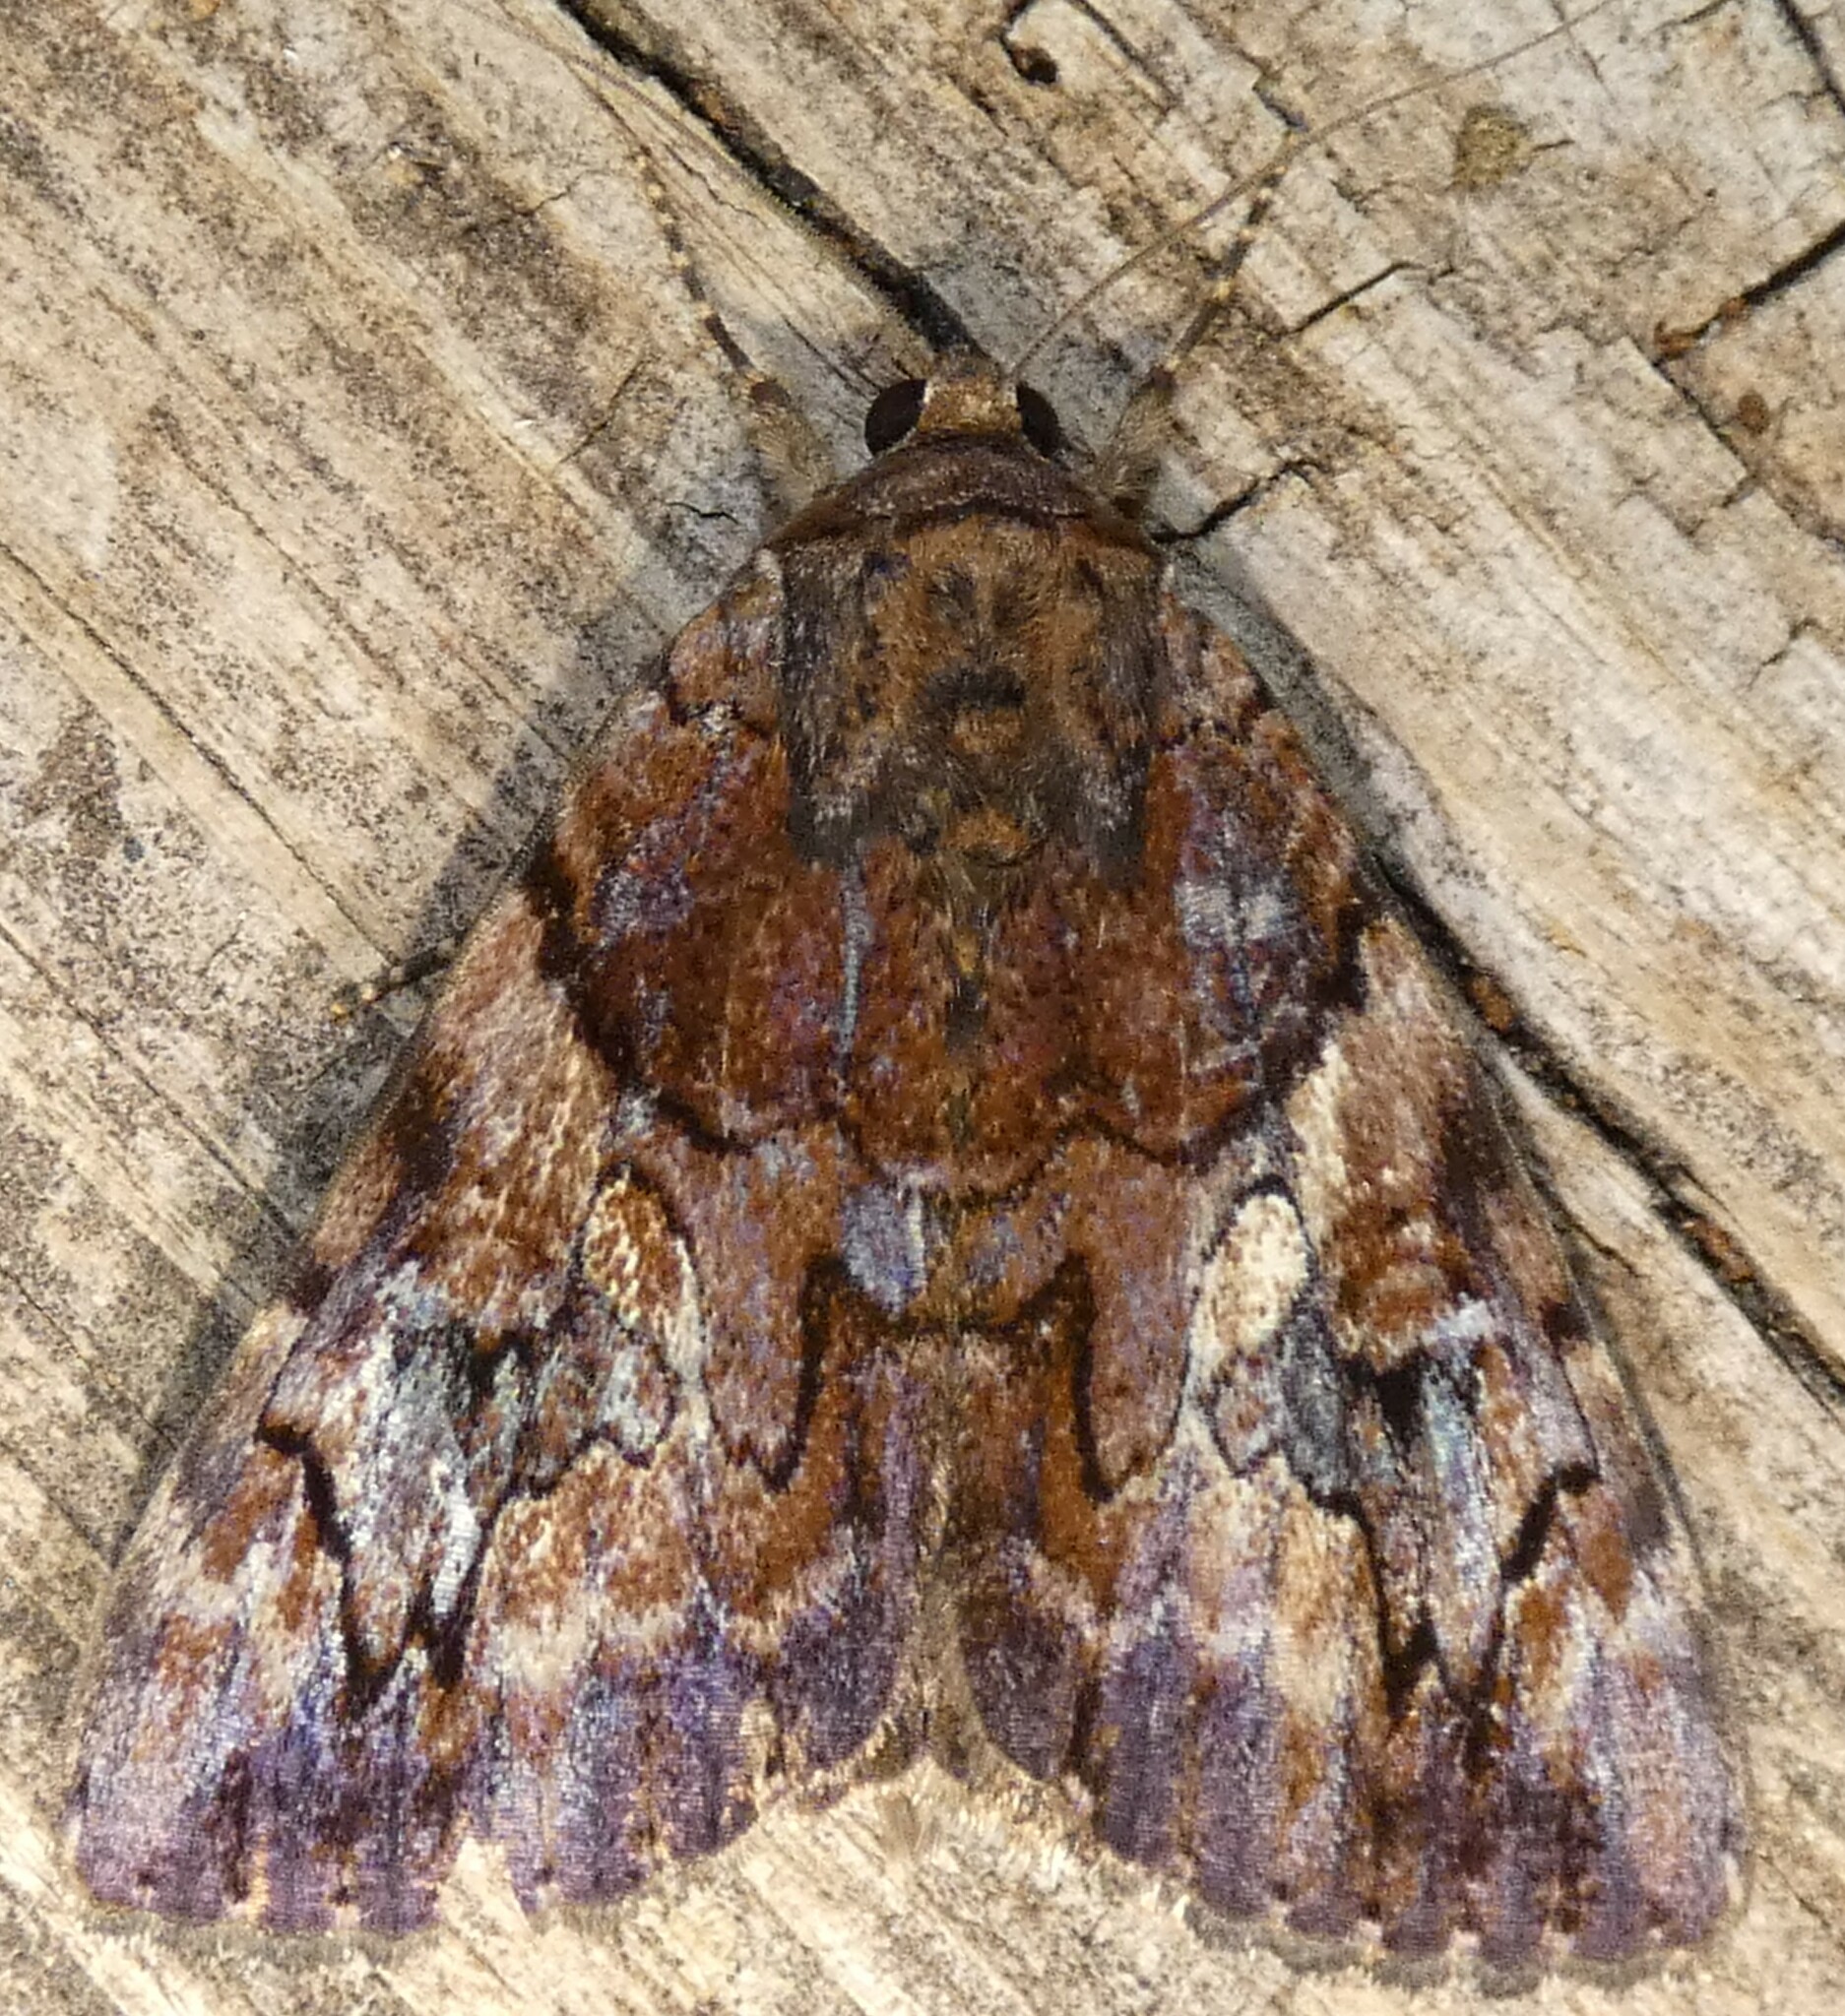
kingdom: Animalia
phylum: Arthropoda
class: Insecta
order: Lepidoptera
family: Erebidae
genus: Catocala
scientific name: Catocala muliercula
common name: The little wife underwing
